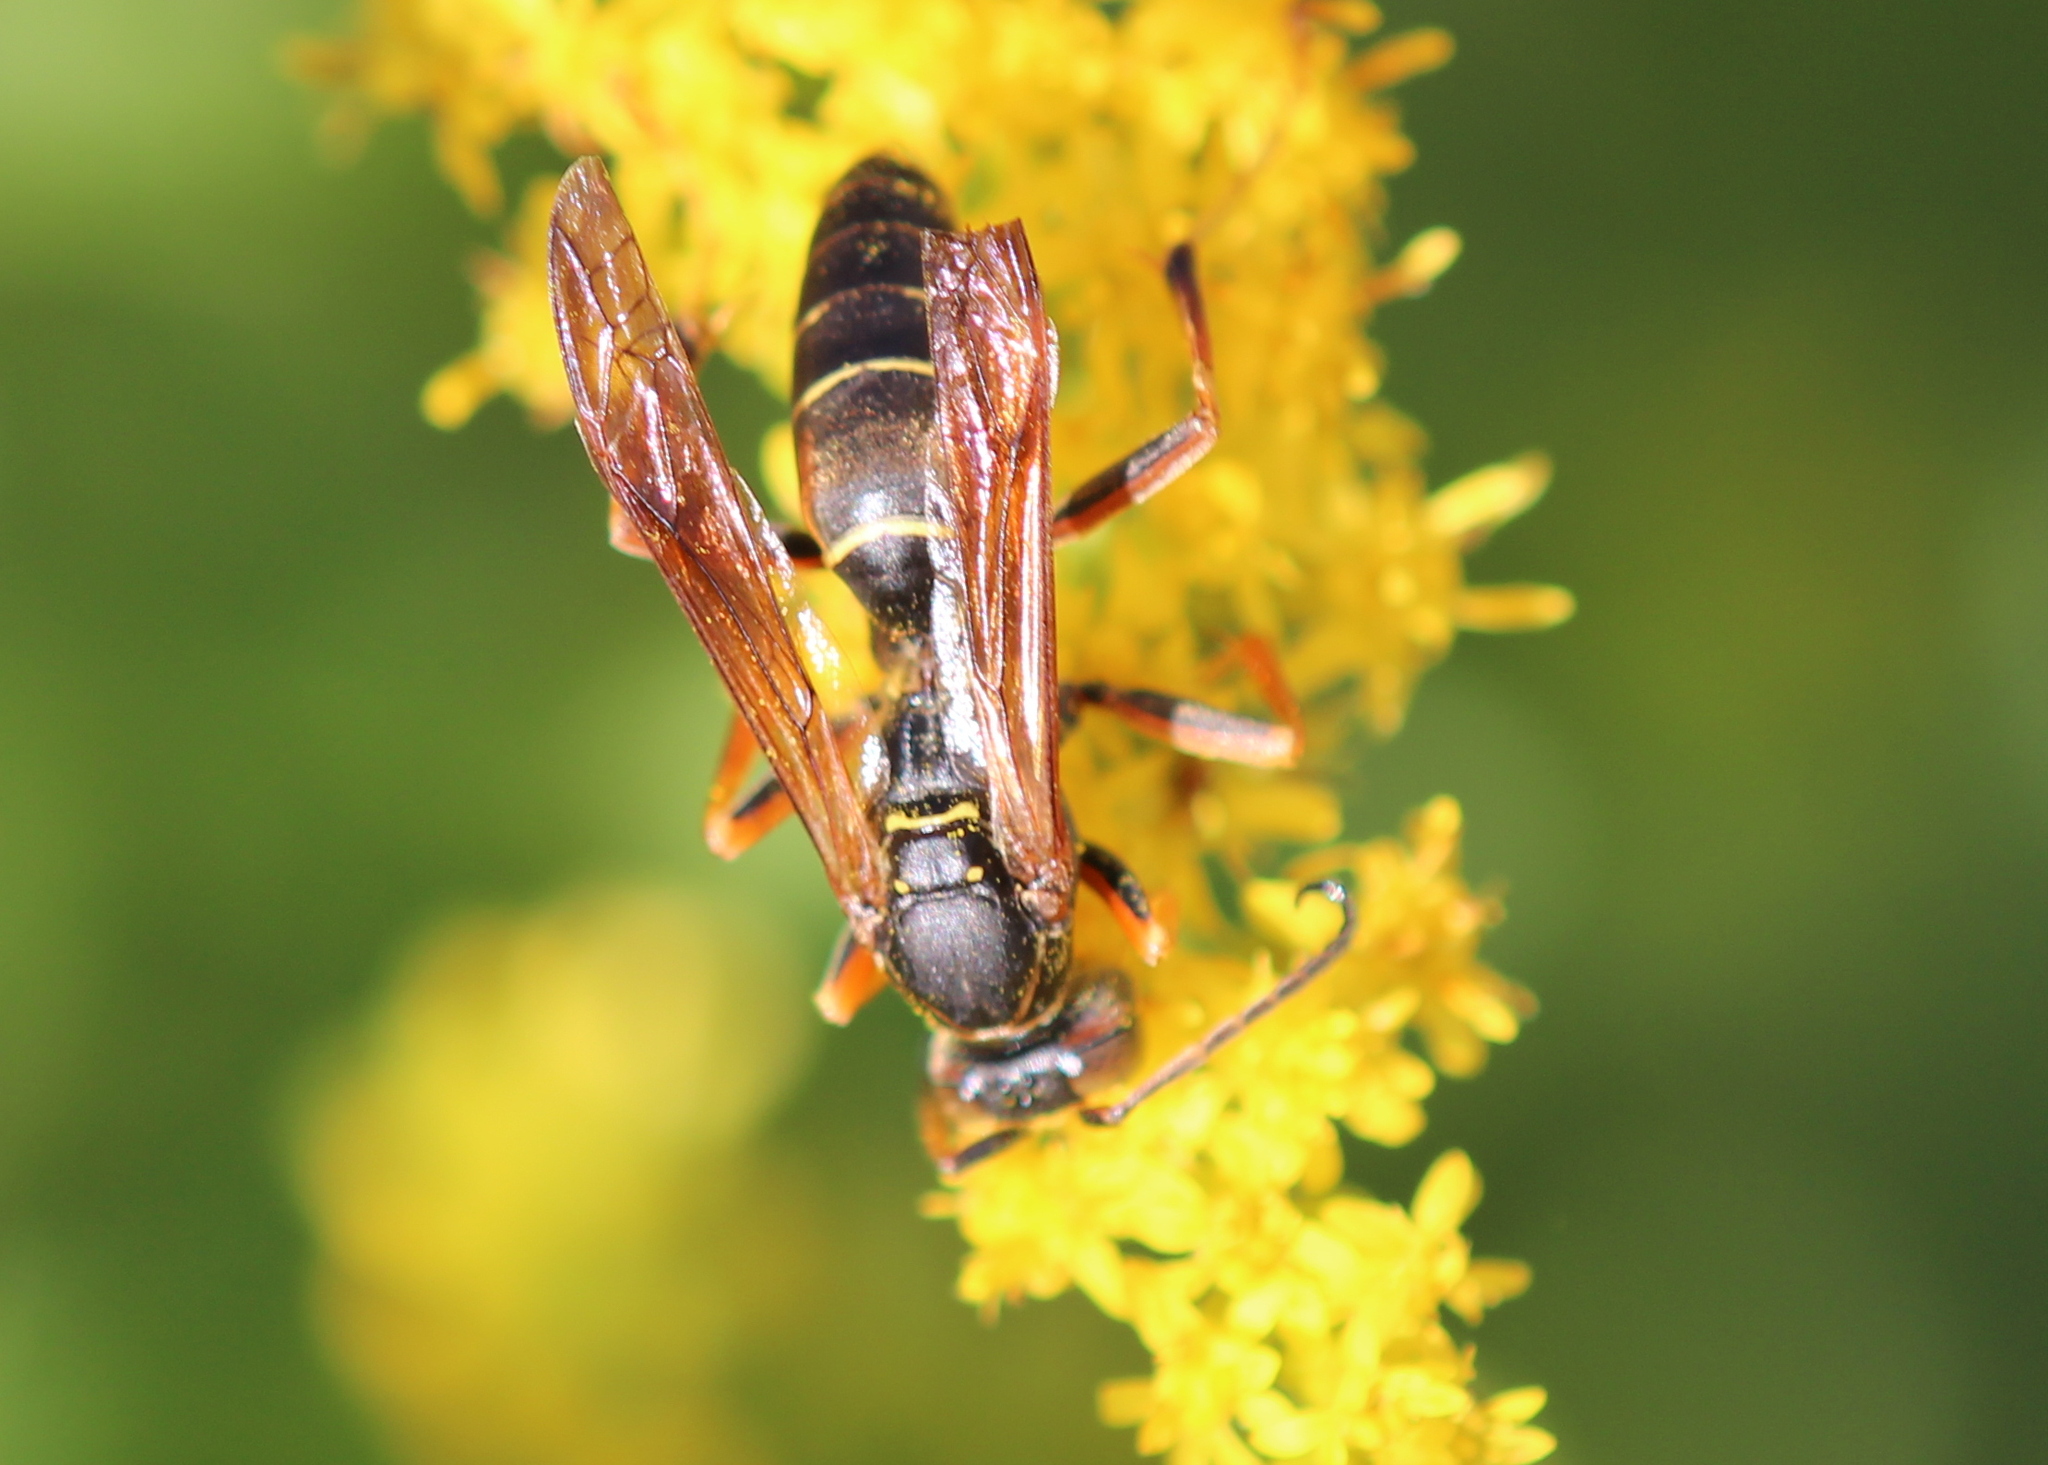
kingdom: Animalia
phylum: Arthropoda
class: Insecta
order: Hymenoptera
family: Eumenidae
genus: Polistes
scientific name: Polistes fuscatus
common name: Dark paper wasp
